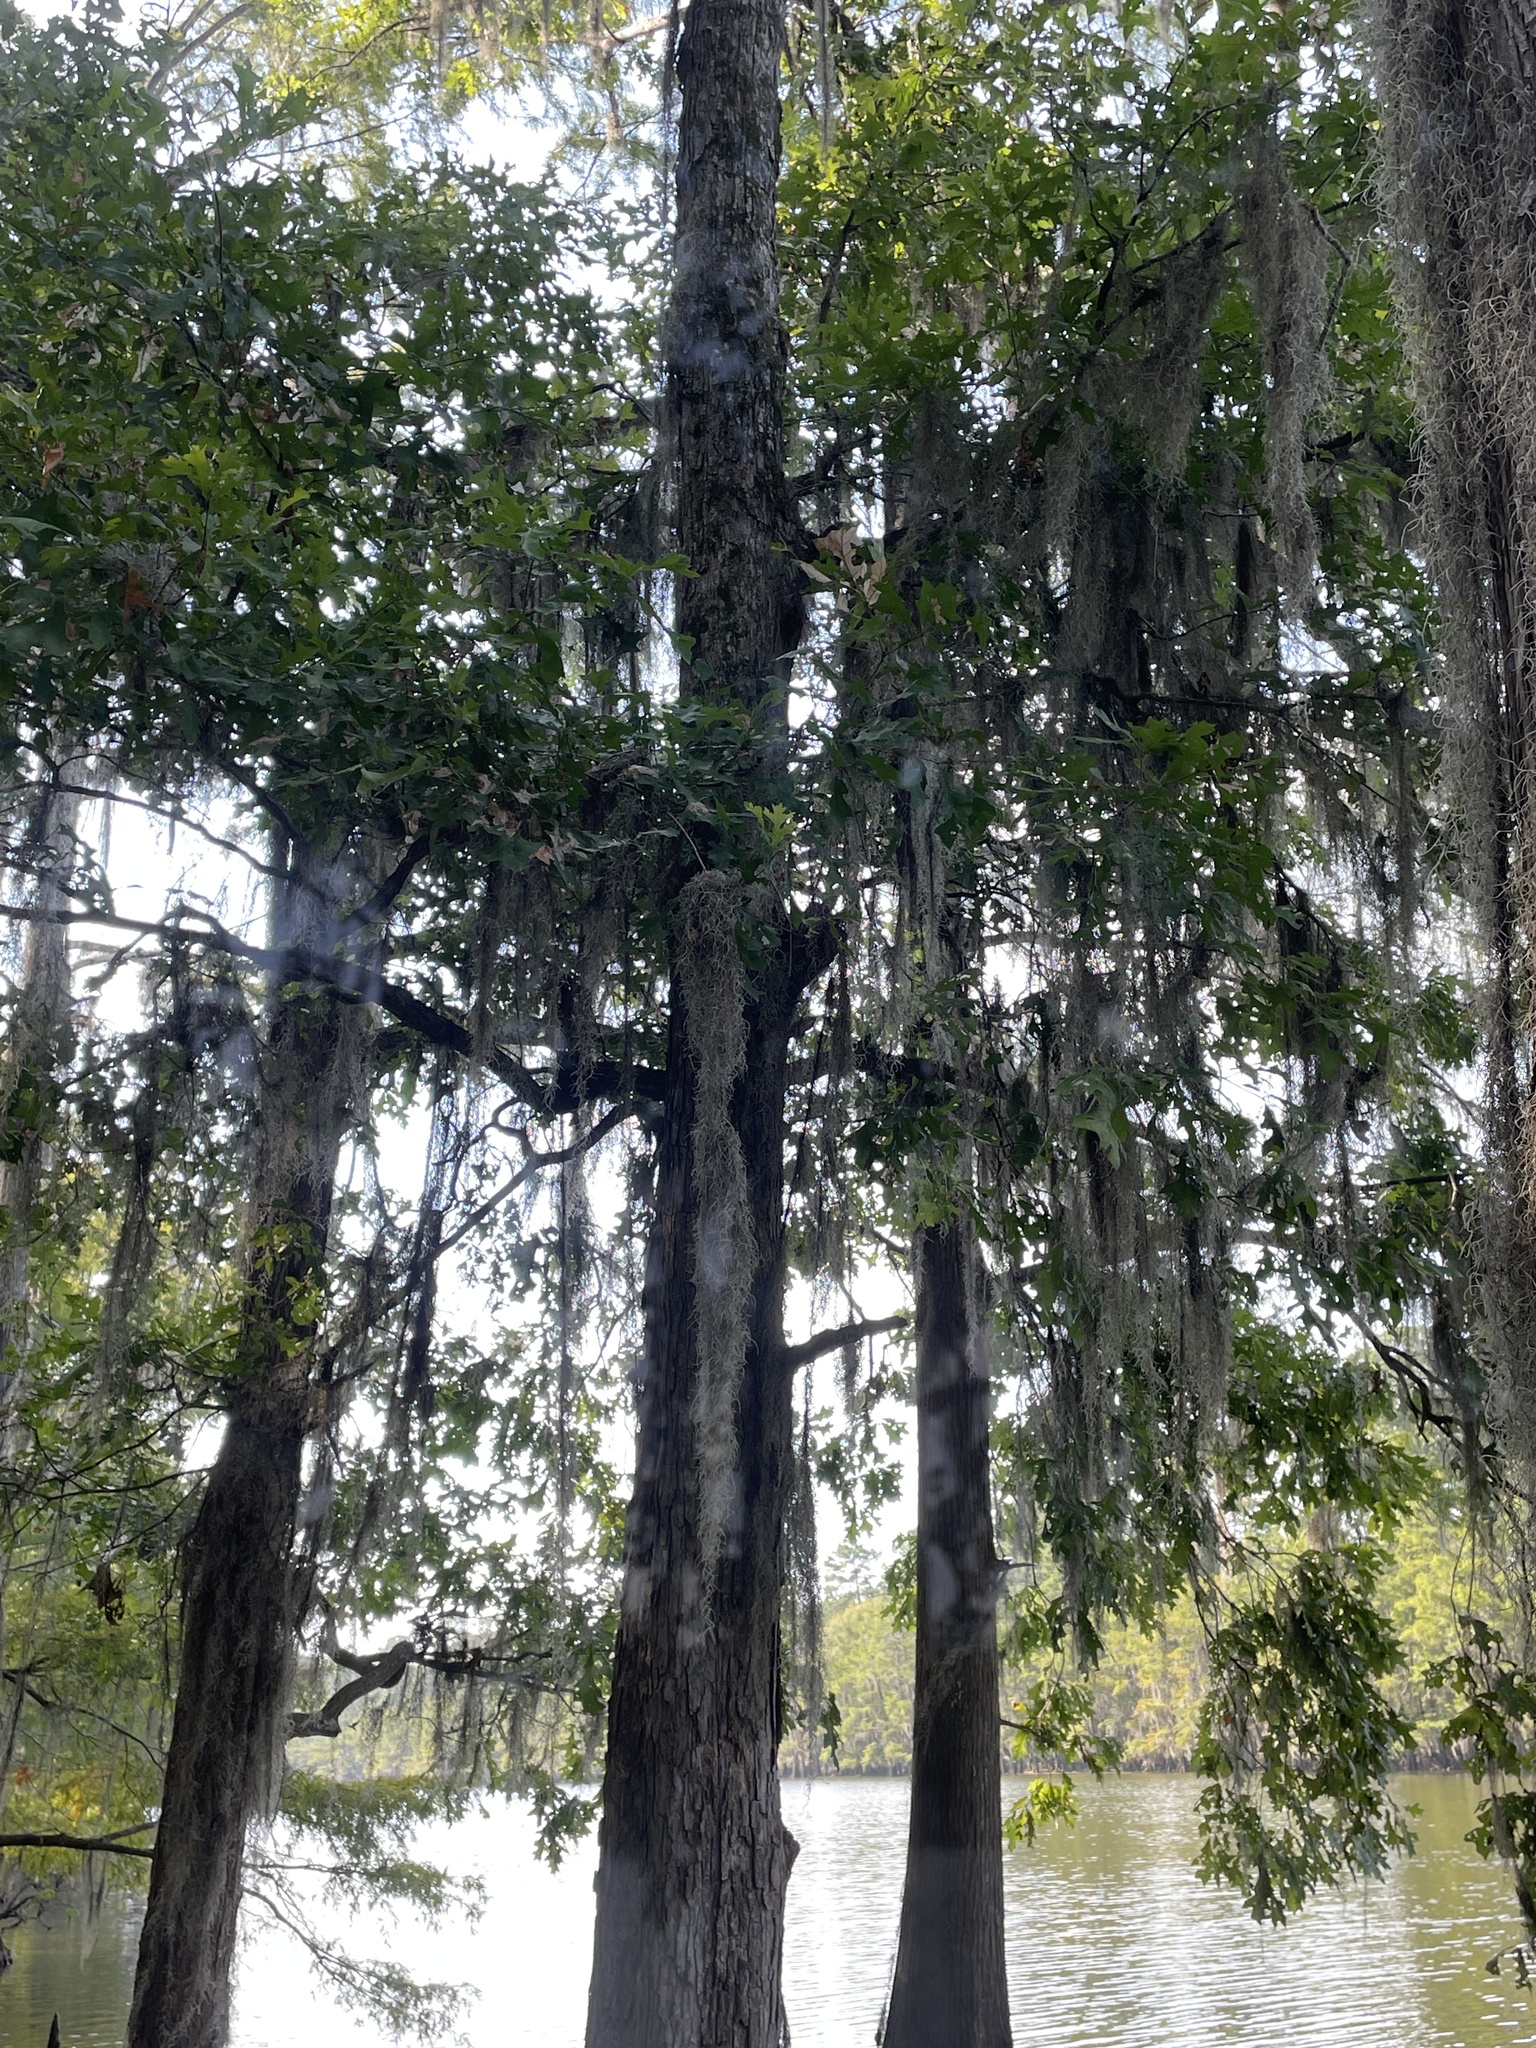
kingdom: Plantae
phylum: Tracheophyta
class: Liliopsida
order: Poales
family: Bromeliaceae
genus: Tillandsia
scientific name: Tillandsia usneoides
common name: Spanish moss
